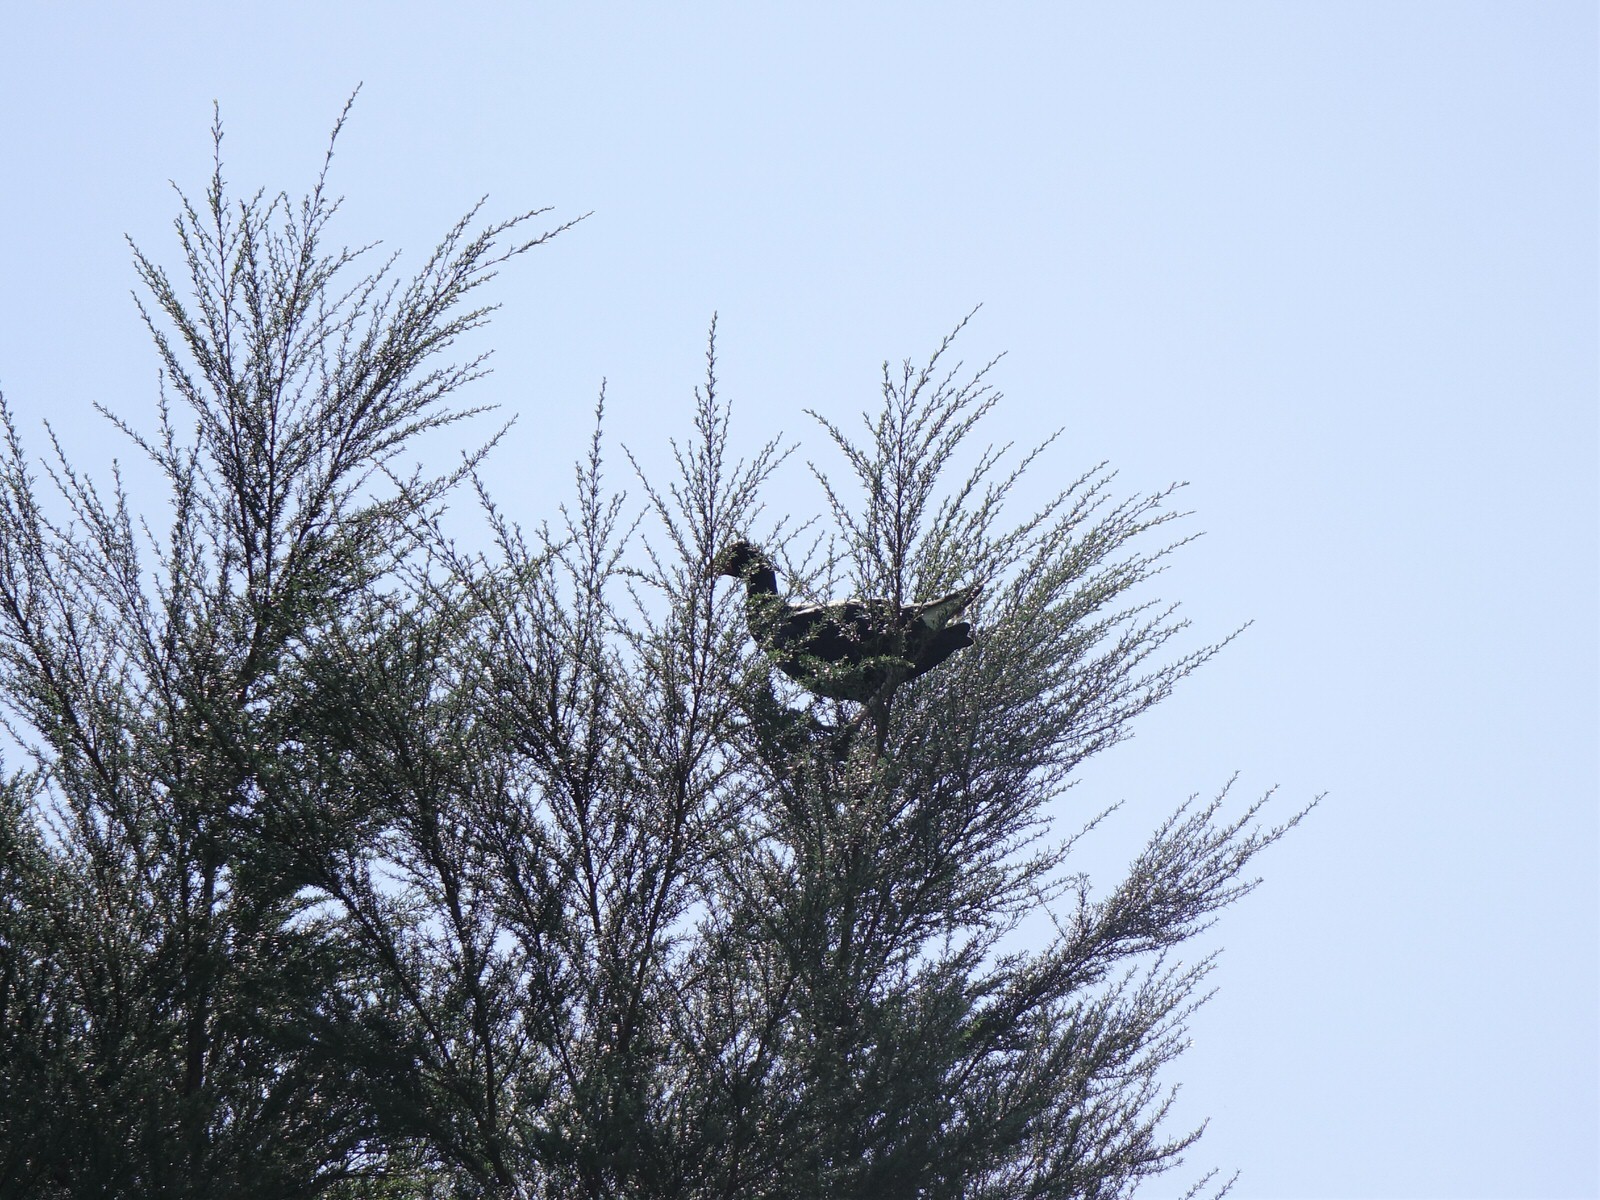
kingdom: Animalia
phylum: Chordata
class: Aves
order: Gruiformes
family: Rallidae
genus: Porphyrio
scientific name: Porphyrio melanotus
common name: Australasian swamphen
